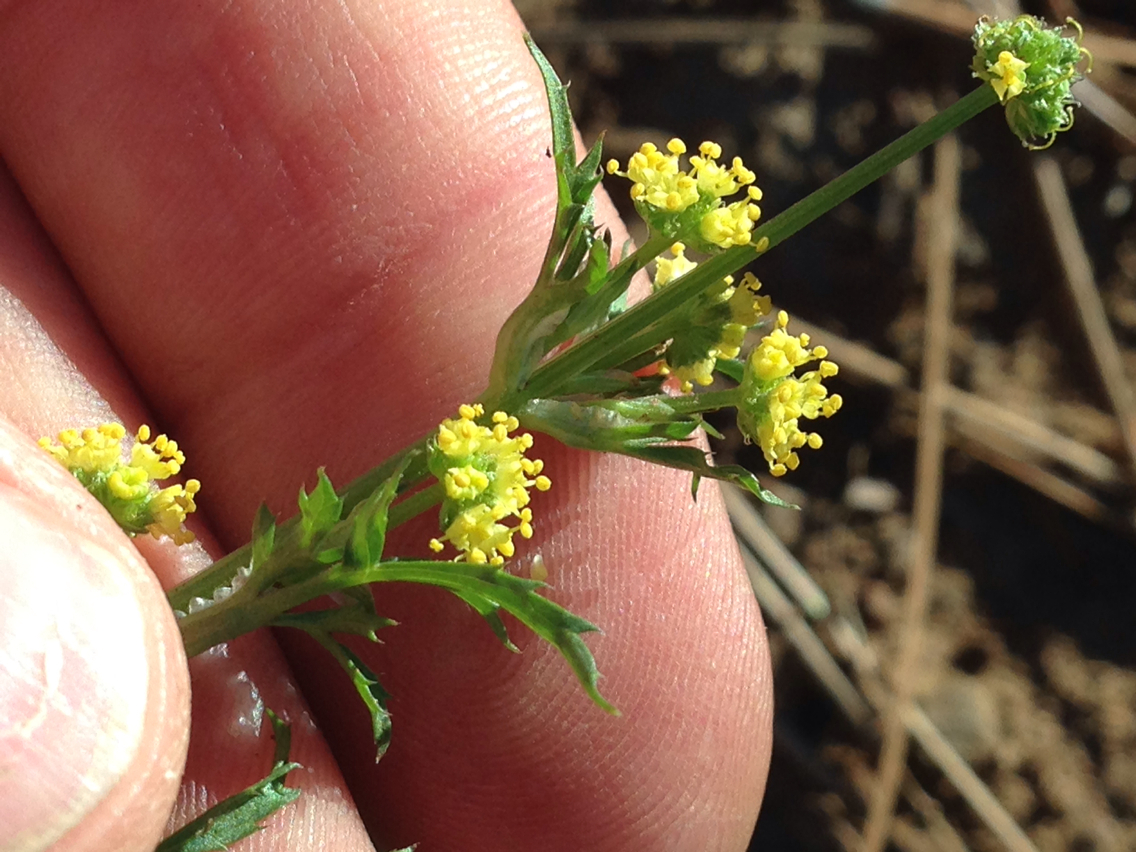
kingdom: Plantae
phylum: Tracheophyta
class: Magnoliopsida
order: Apiales
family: Apiaceae
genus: Sanicula
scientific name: Sanicula bipinnata
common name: Poison sanicle
